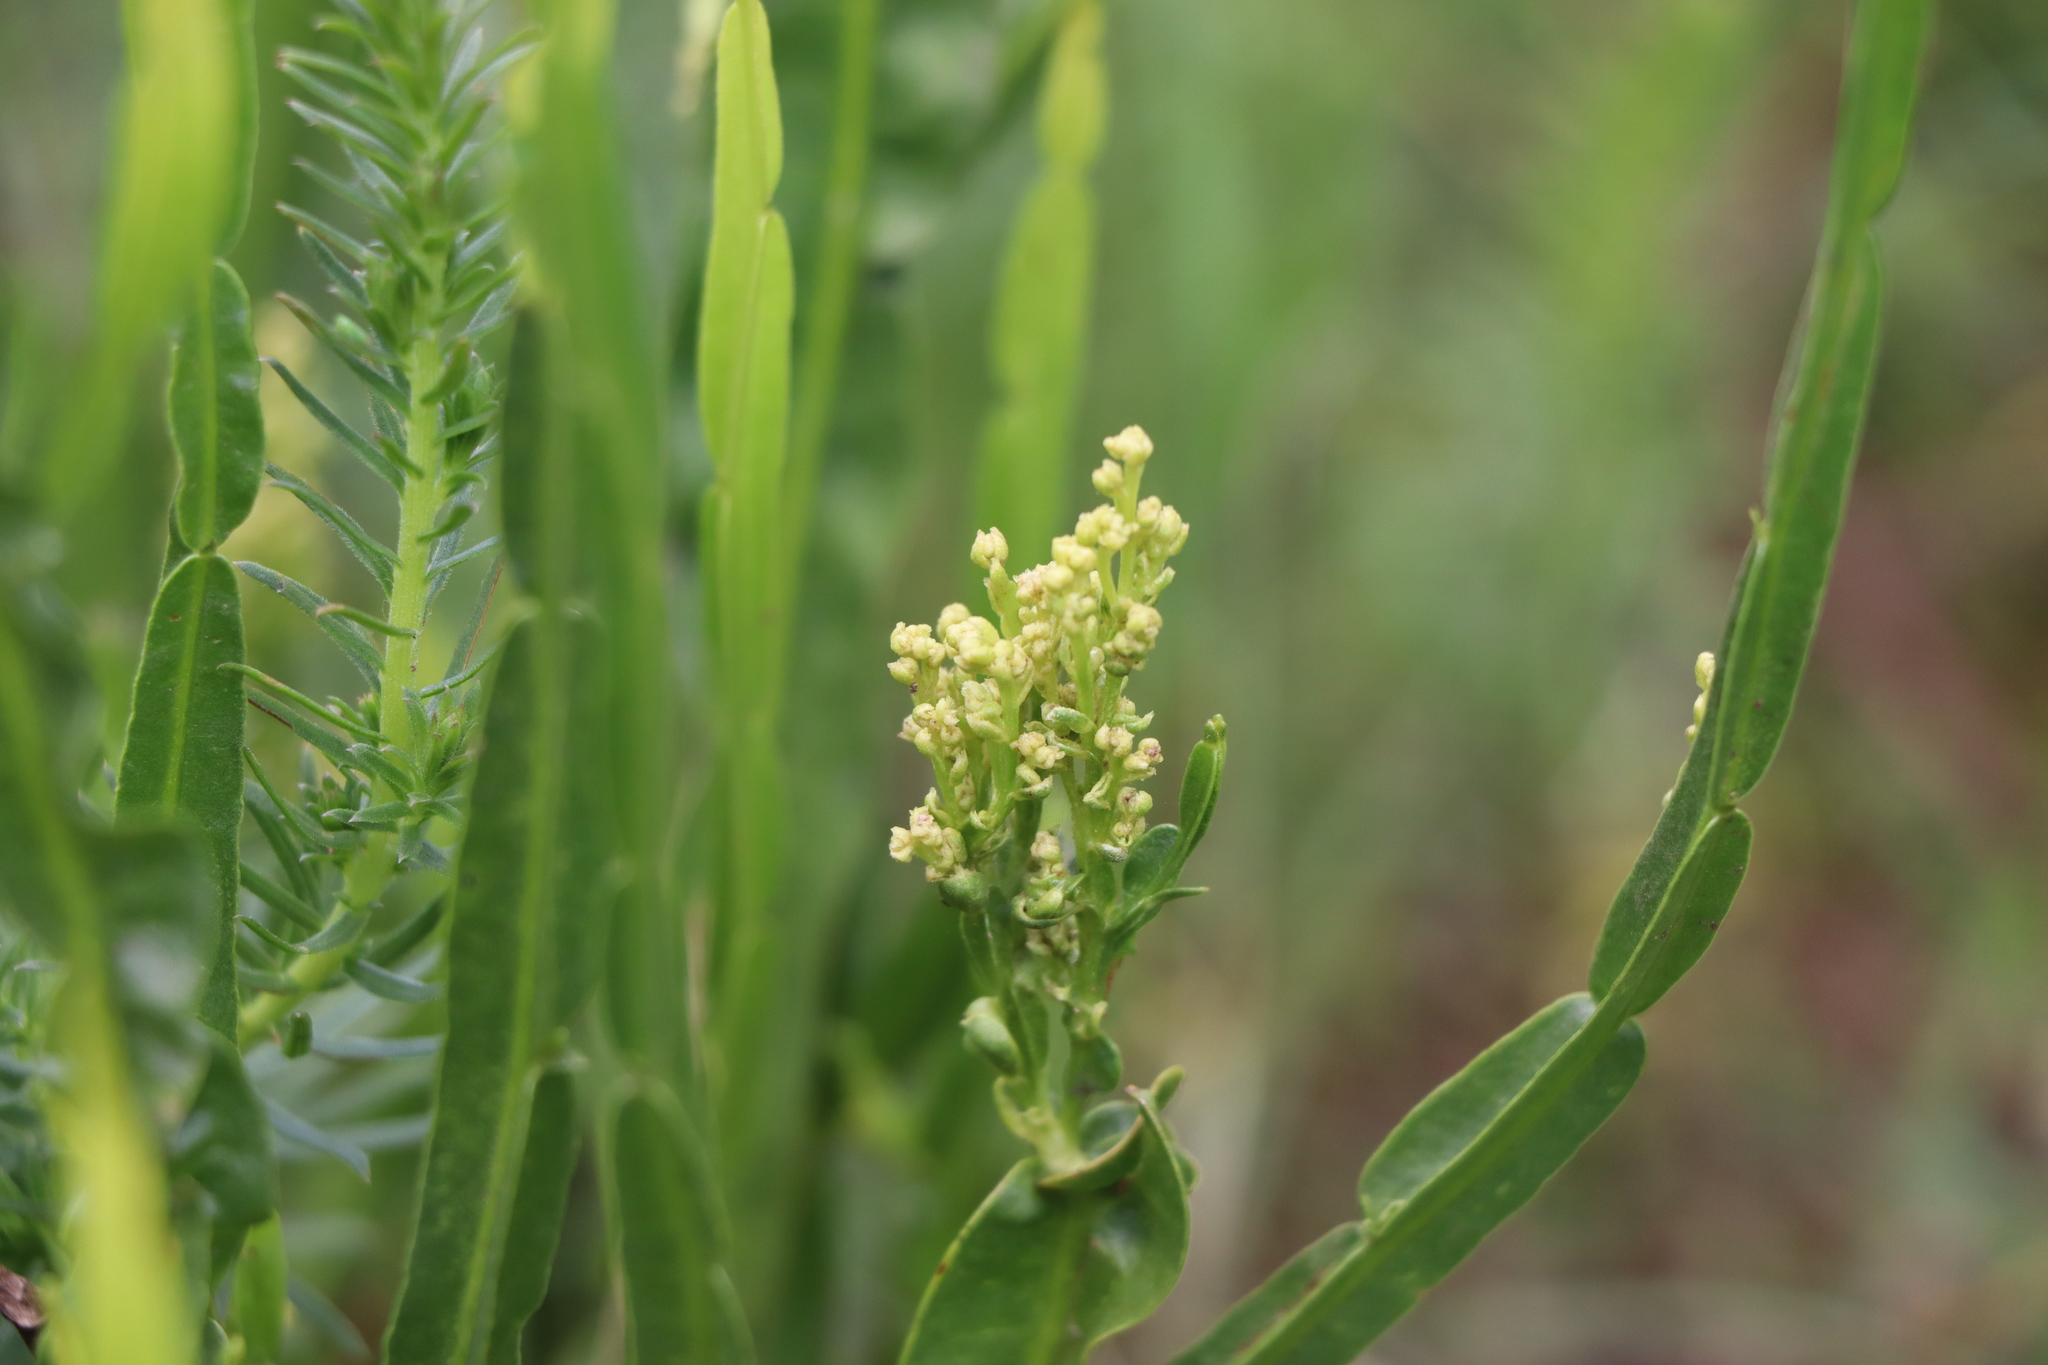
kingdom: Plantae
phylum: Tracheophyta
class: Magnoliopsida
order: Asterales
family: Asteraceae
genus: Baccharis
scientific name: Baccharis trimera
